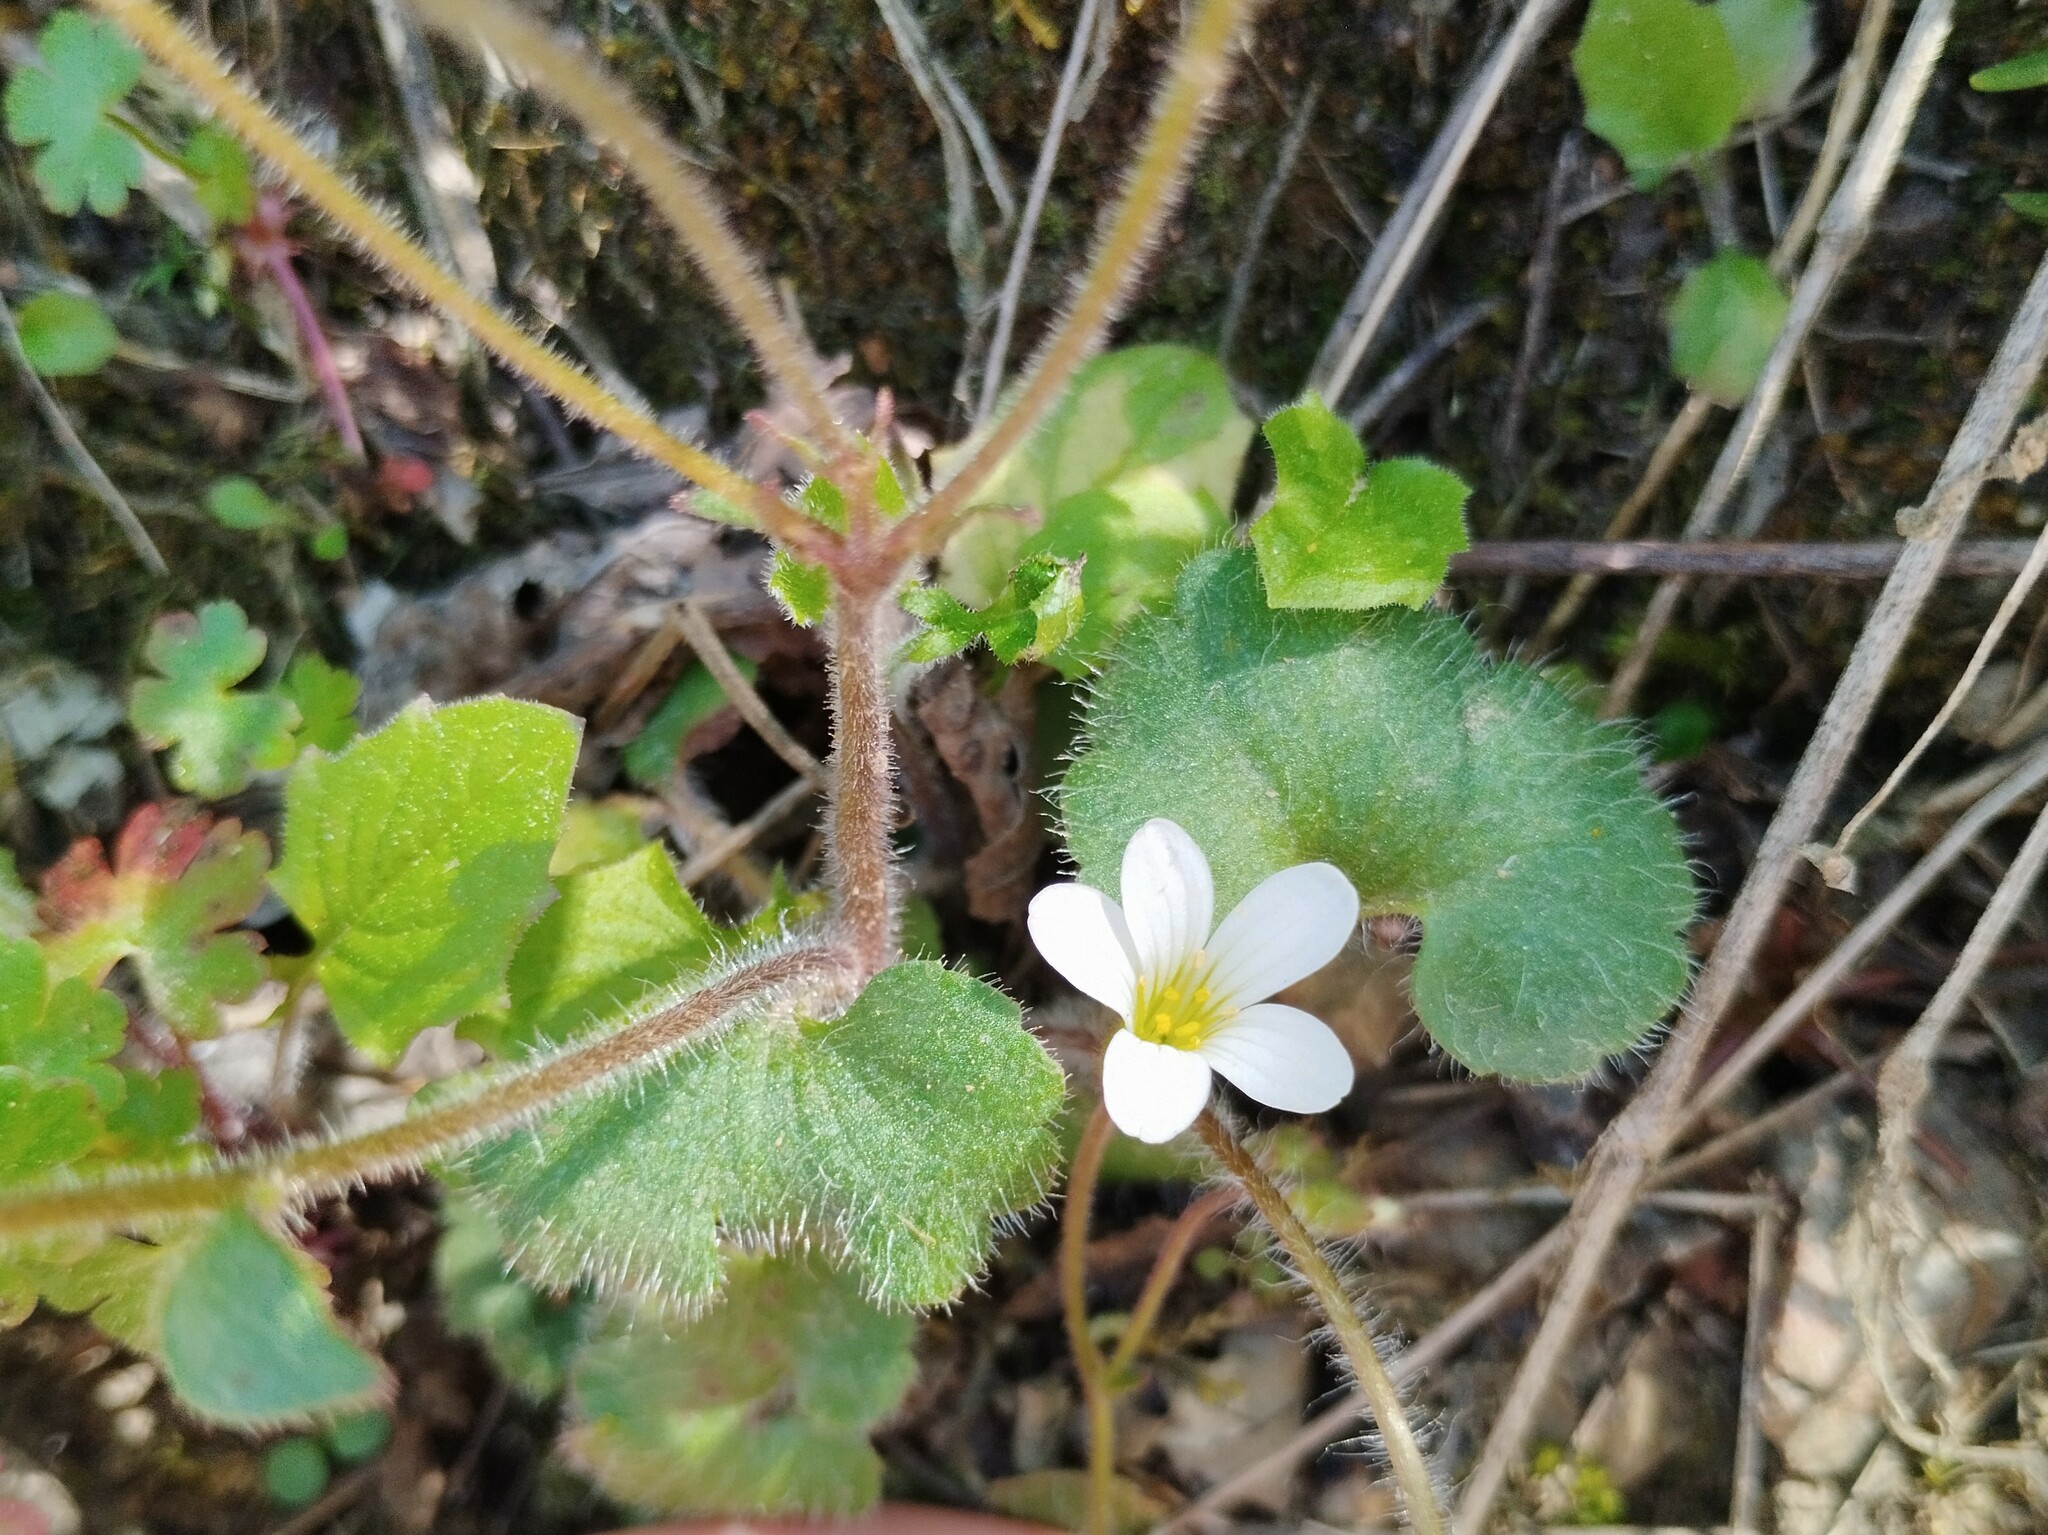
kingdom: Plantae
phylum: Tracheophyta
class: Magnoliopsida
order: Saxifragales
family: Saxifragaceae
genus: Saxifraga
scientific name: Saxifraga granulata
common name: Meadow saxifrage
